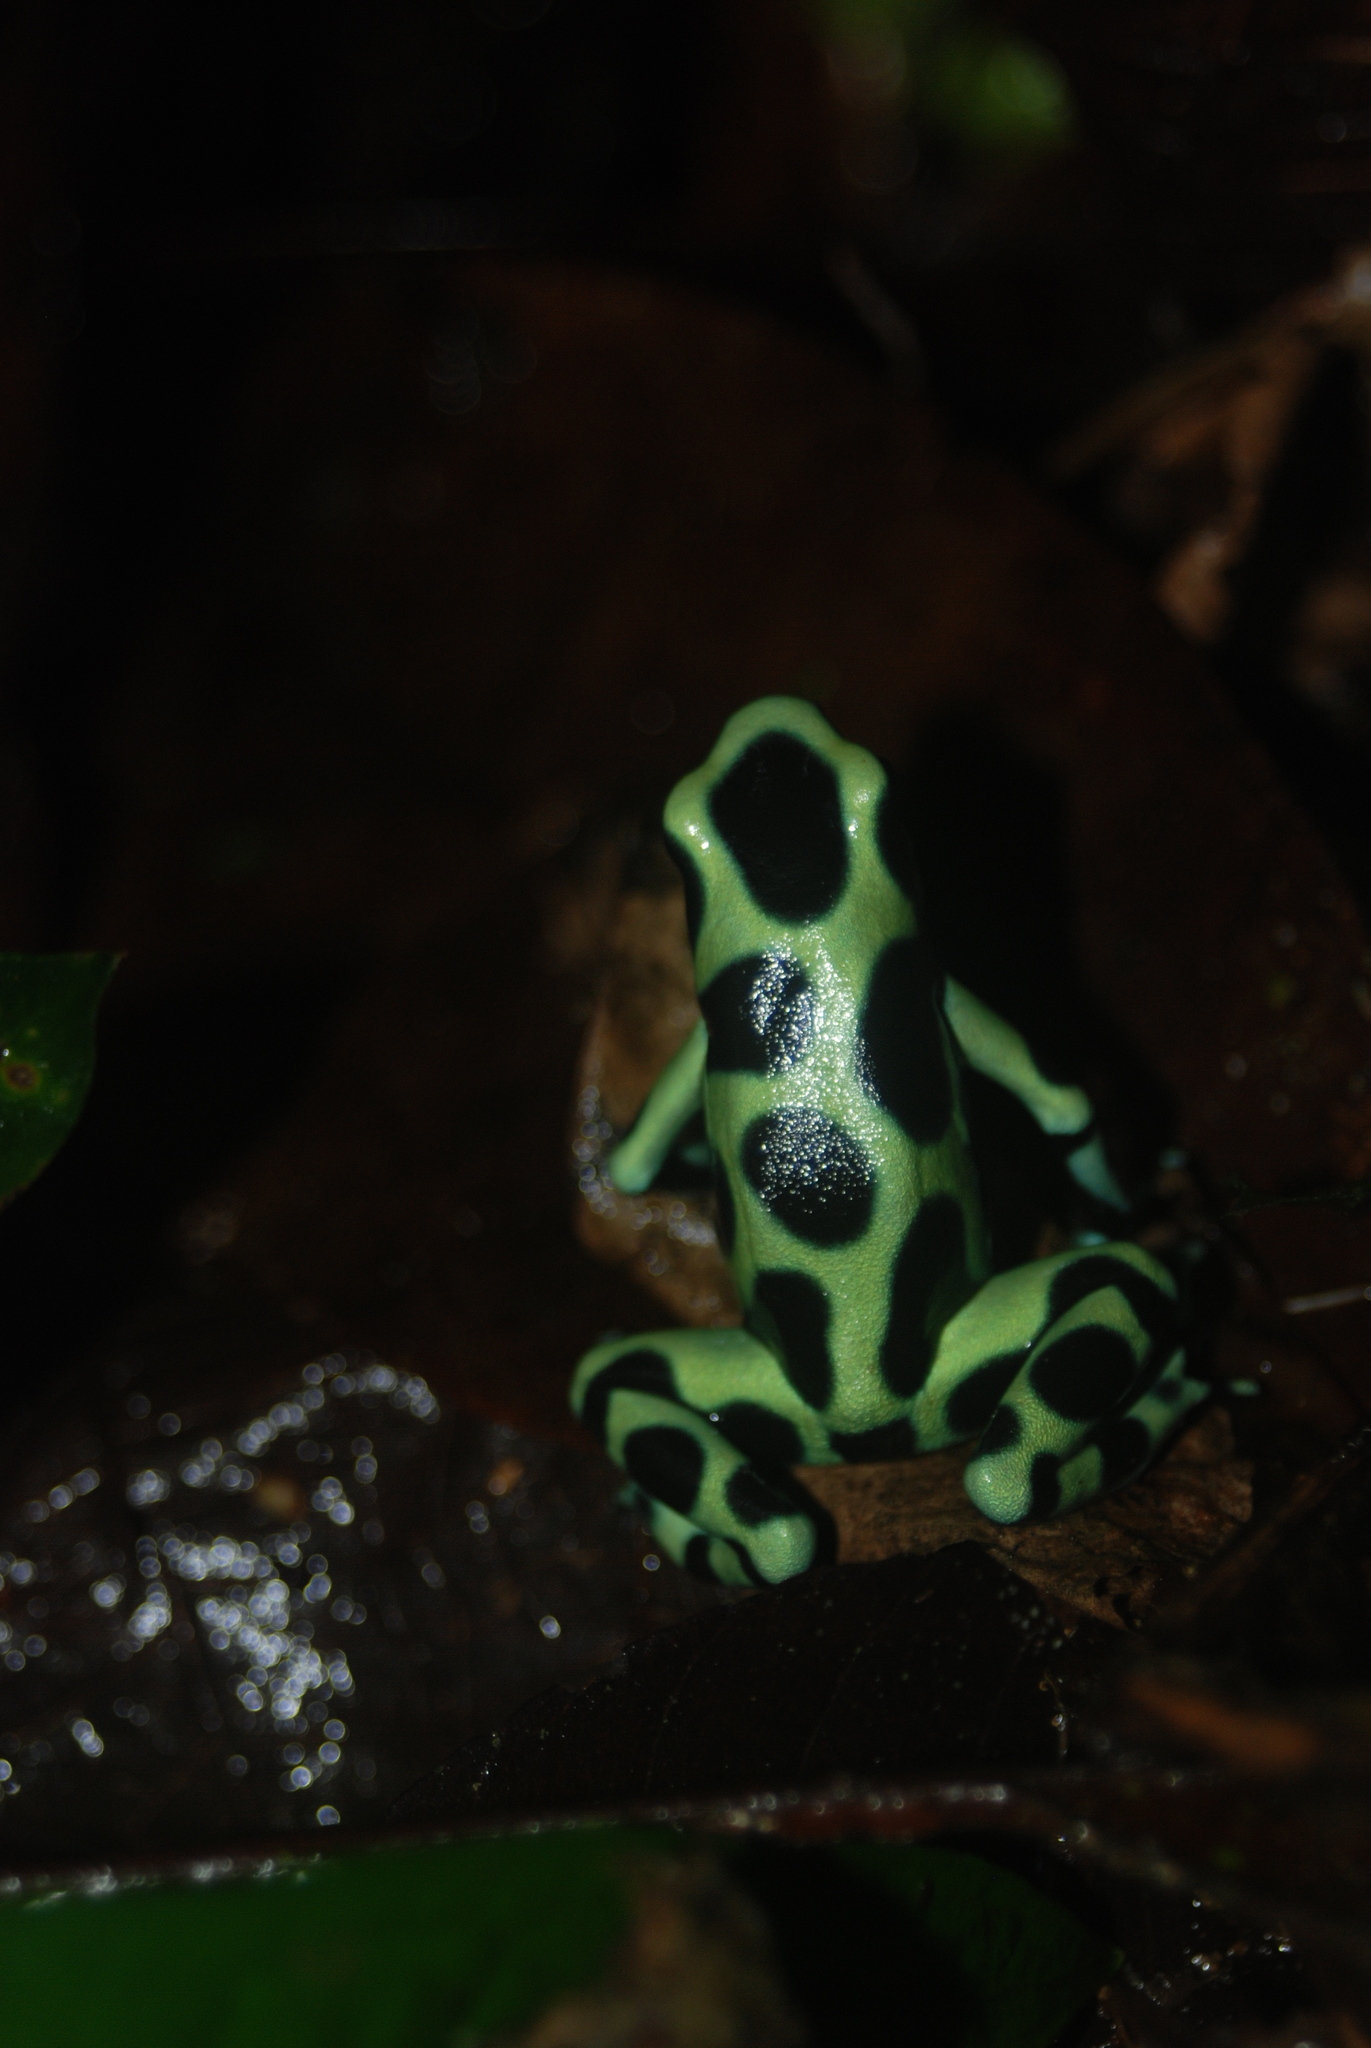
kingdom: Animalia
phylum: Chordata
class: Amphibia
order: Anura
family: Dendrobatidae
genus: Dendrobates
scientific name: Dendrobates auratus
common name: Green and black poison dart frog
